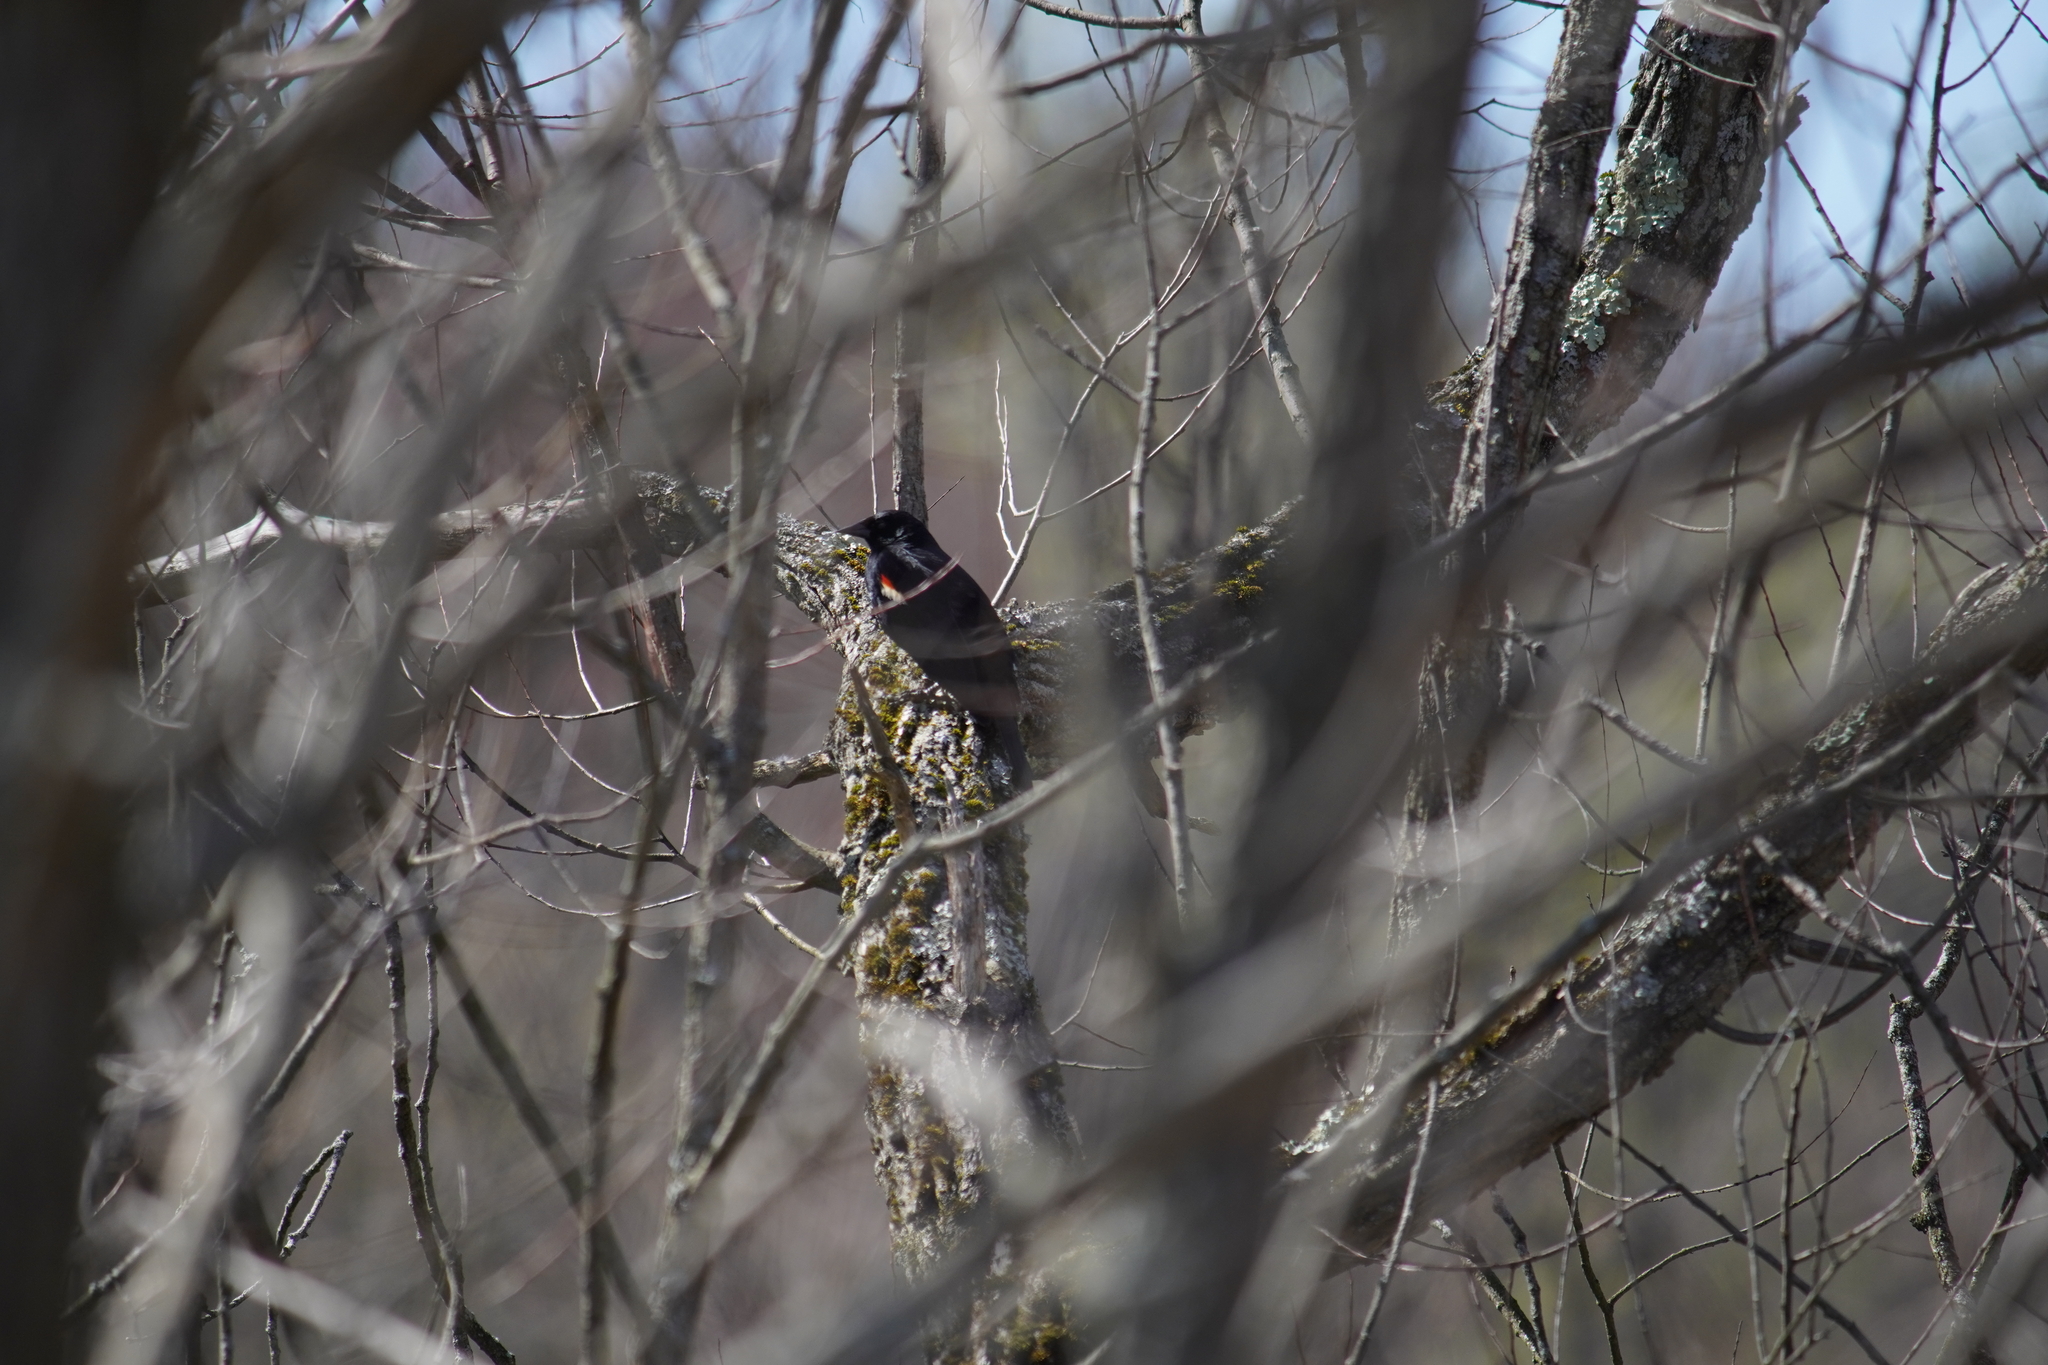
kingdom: Animalia
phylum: Chordata
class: Aves
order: Passeriformes
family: Icteridae
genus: Agelaius
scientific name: Agelaius phoeniceus
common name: Red-winged blackbird
